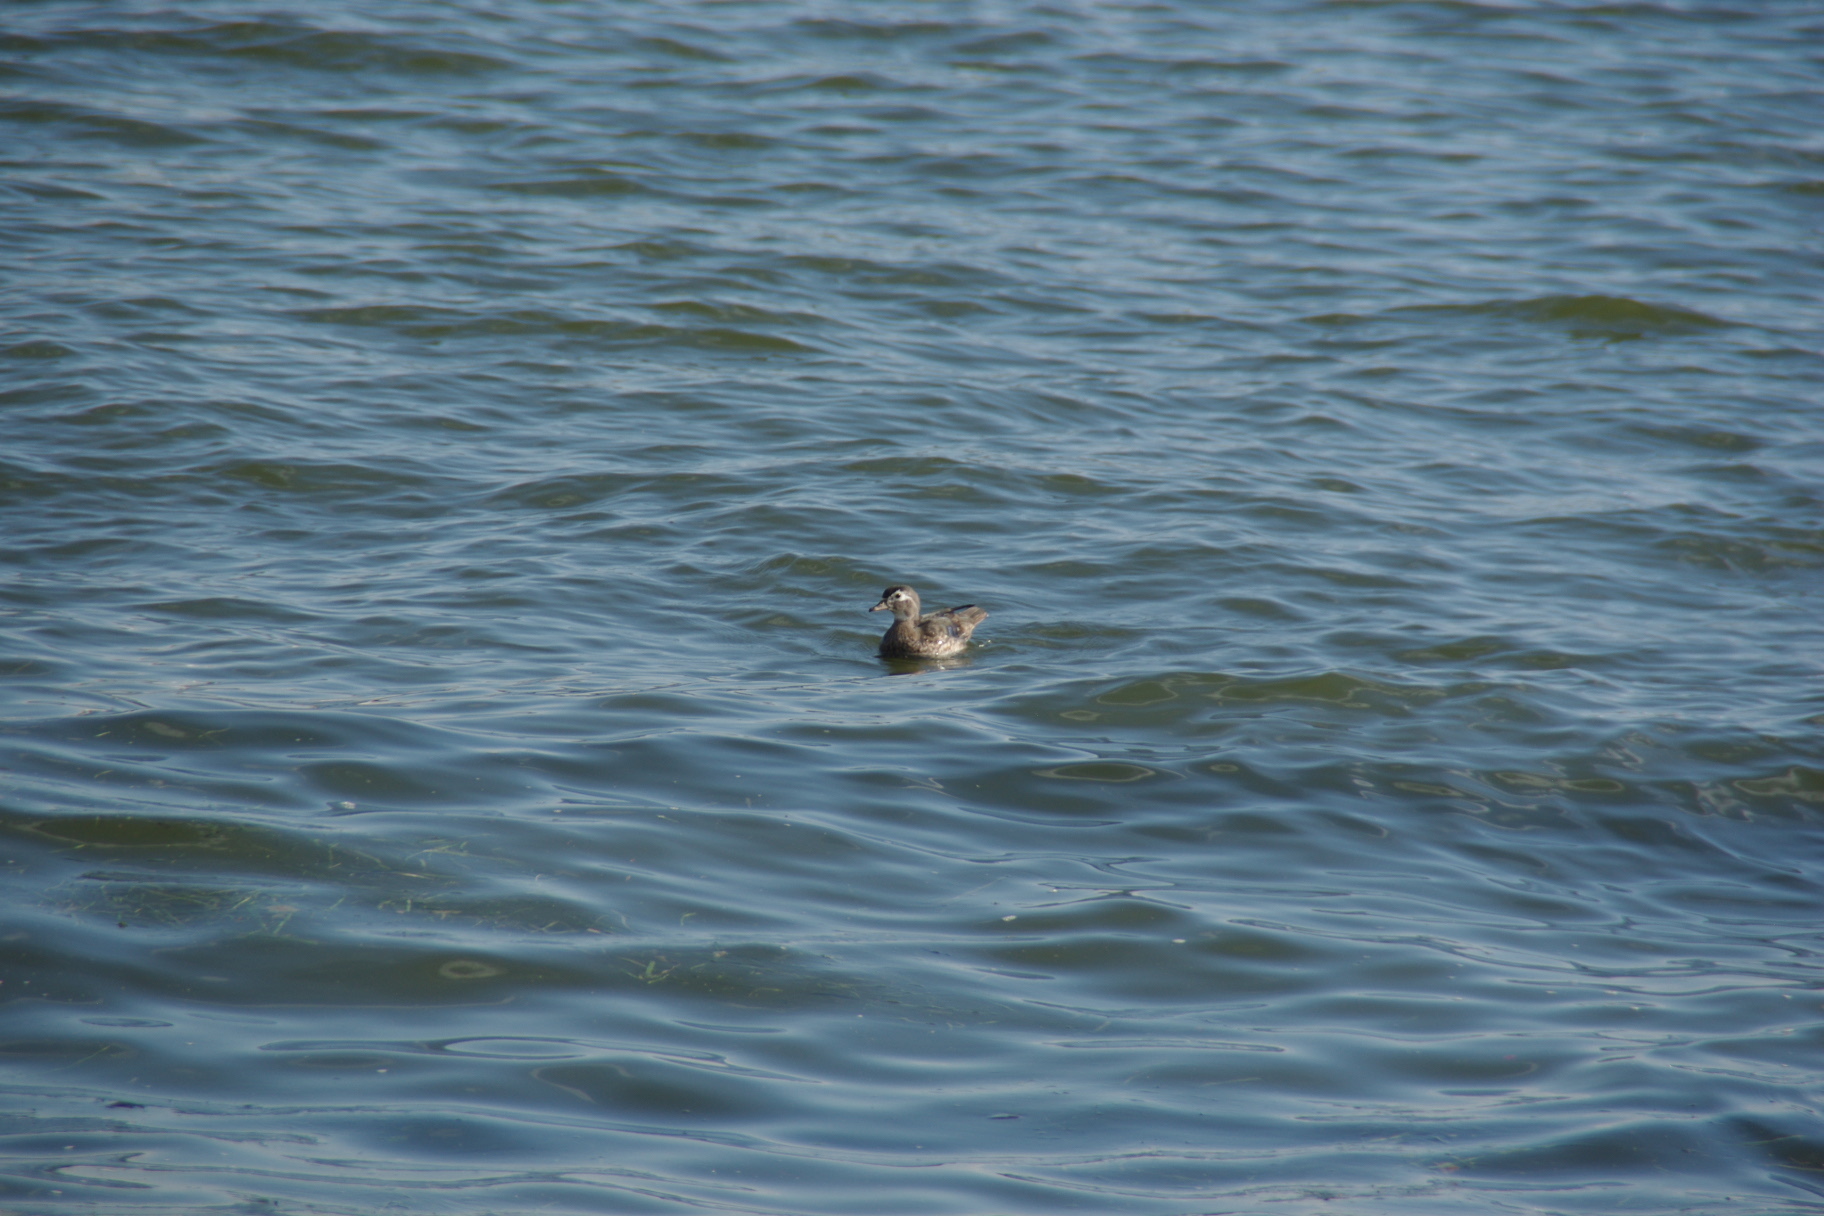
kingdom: Animalia
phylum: Chordata
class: Aves
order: Anseriformes
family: Anatidae
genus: Aix
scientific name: Aix sponsa
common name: Wood duck
